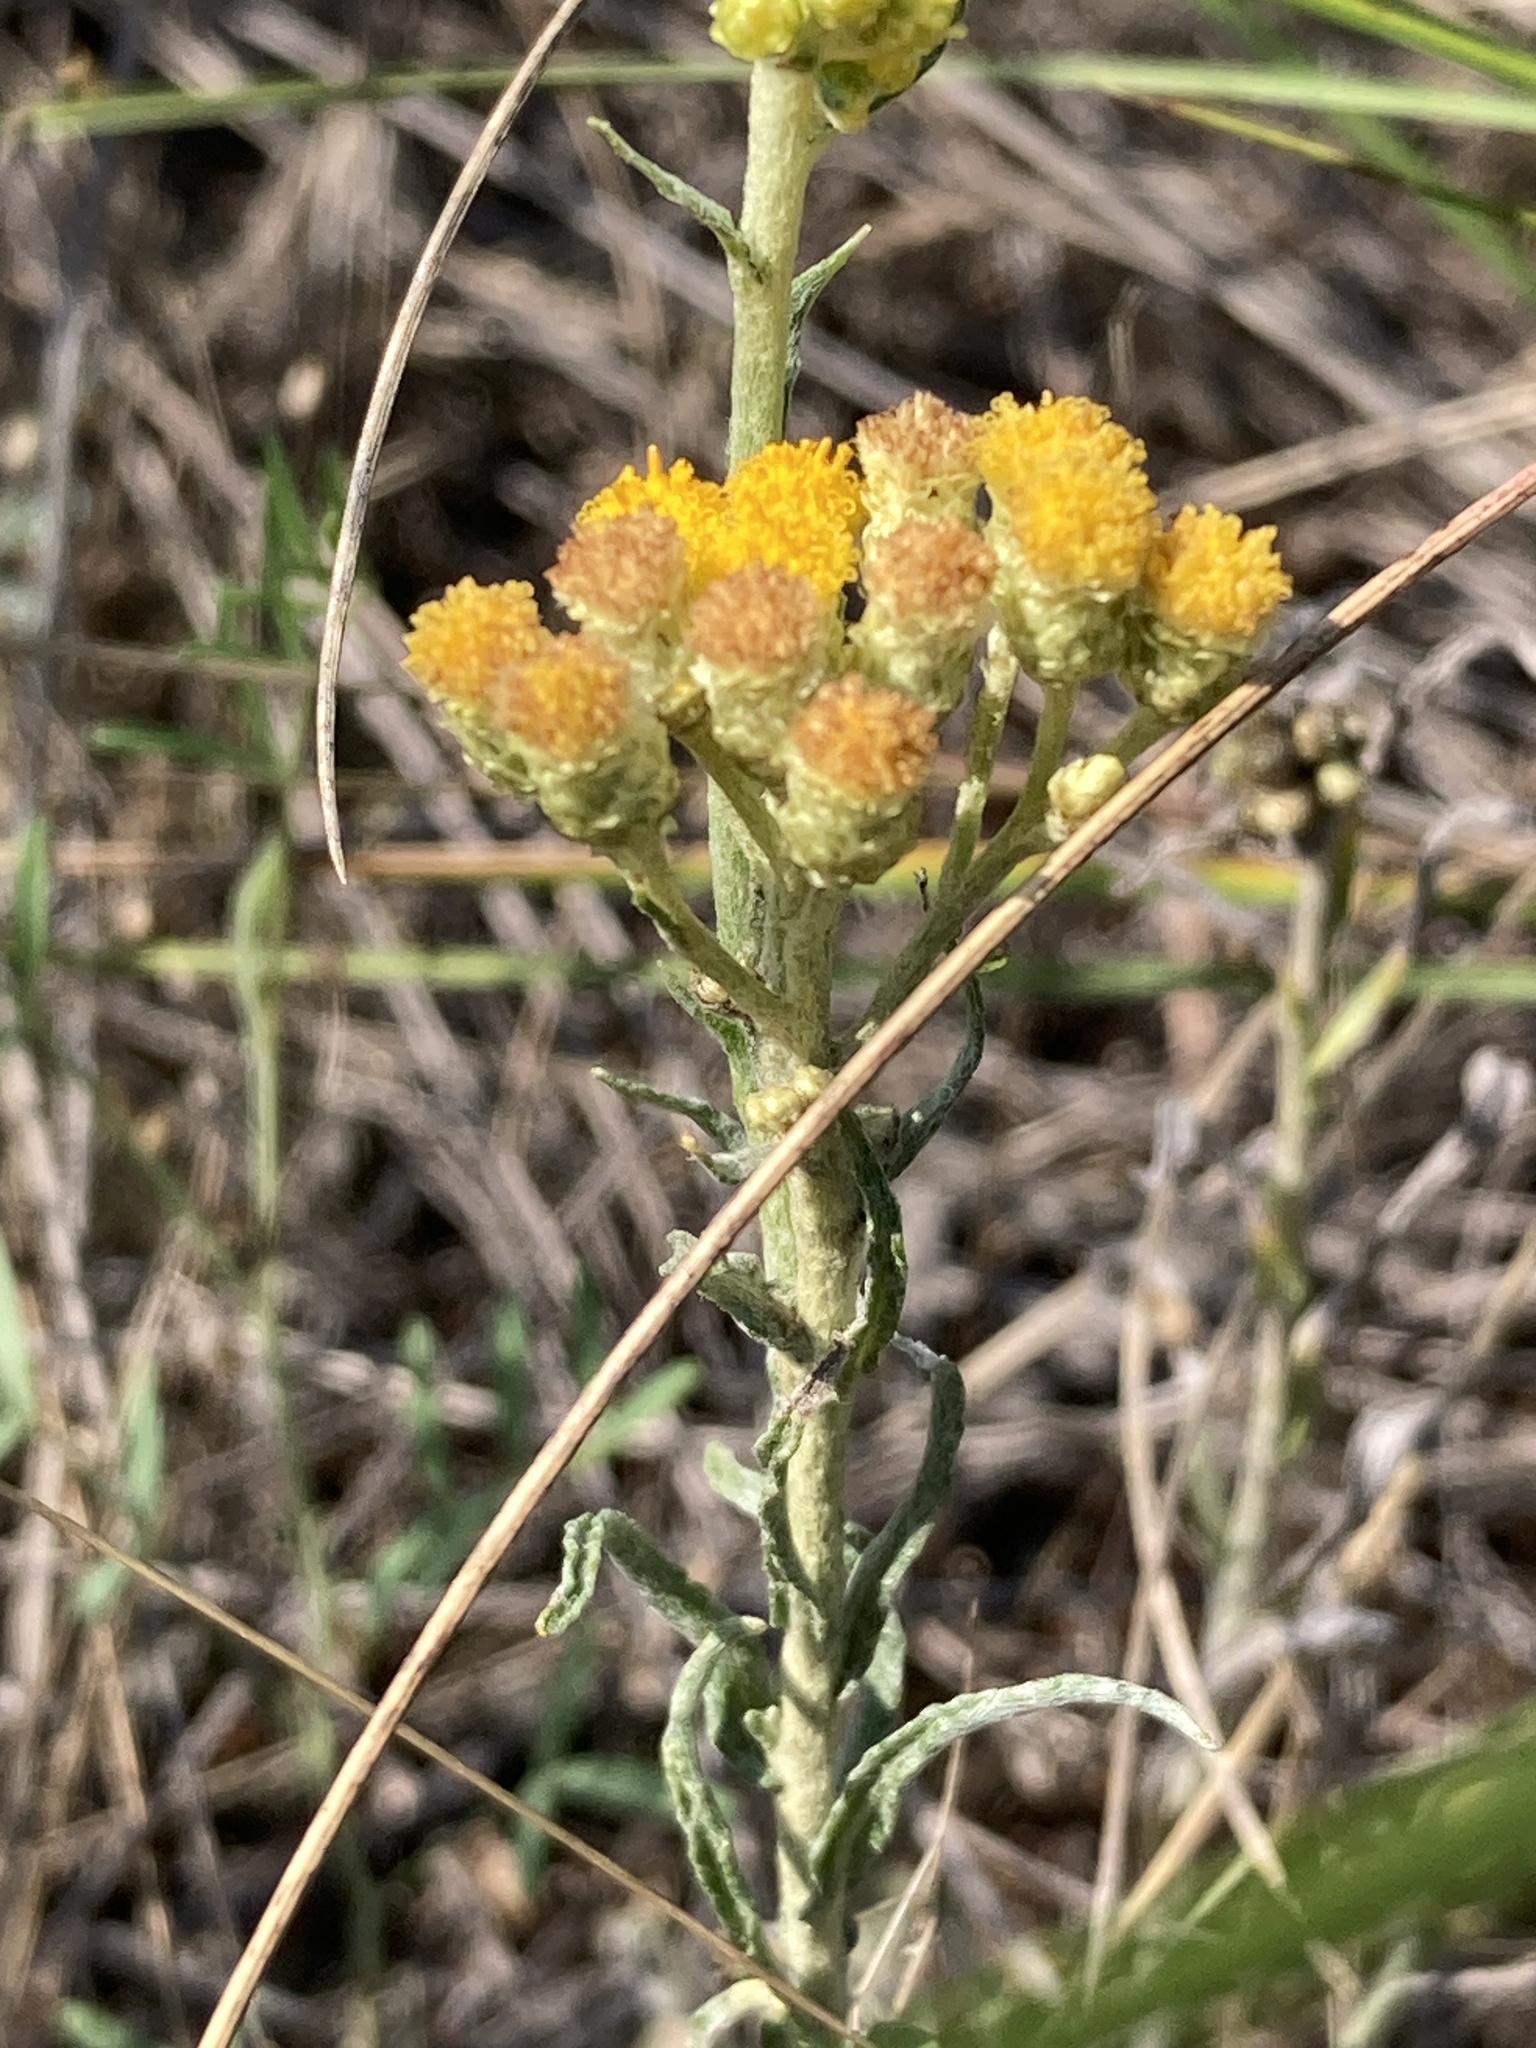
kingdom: Plantae
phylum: Tracheophyta
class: Magnoliopsida
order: Asterales
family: Asteraceae
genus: Helichrysum
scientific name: Helichrysum arenarium
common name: Strawflower
